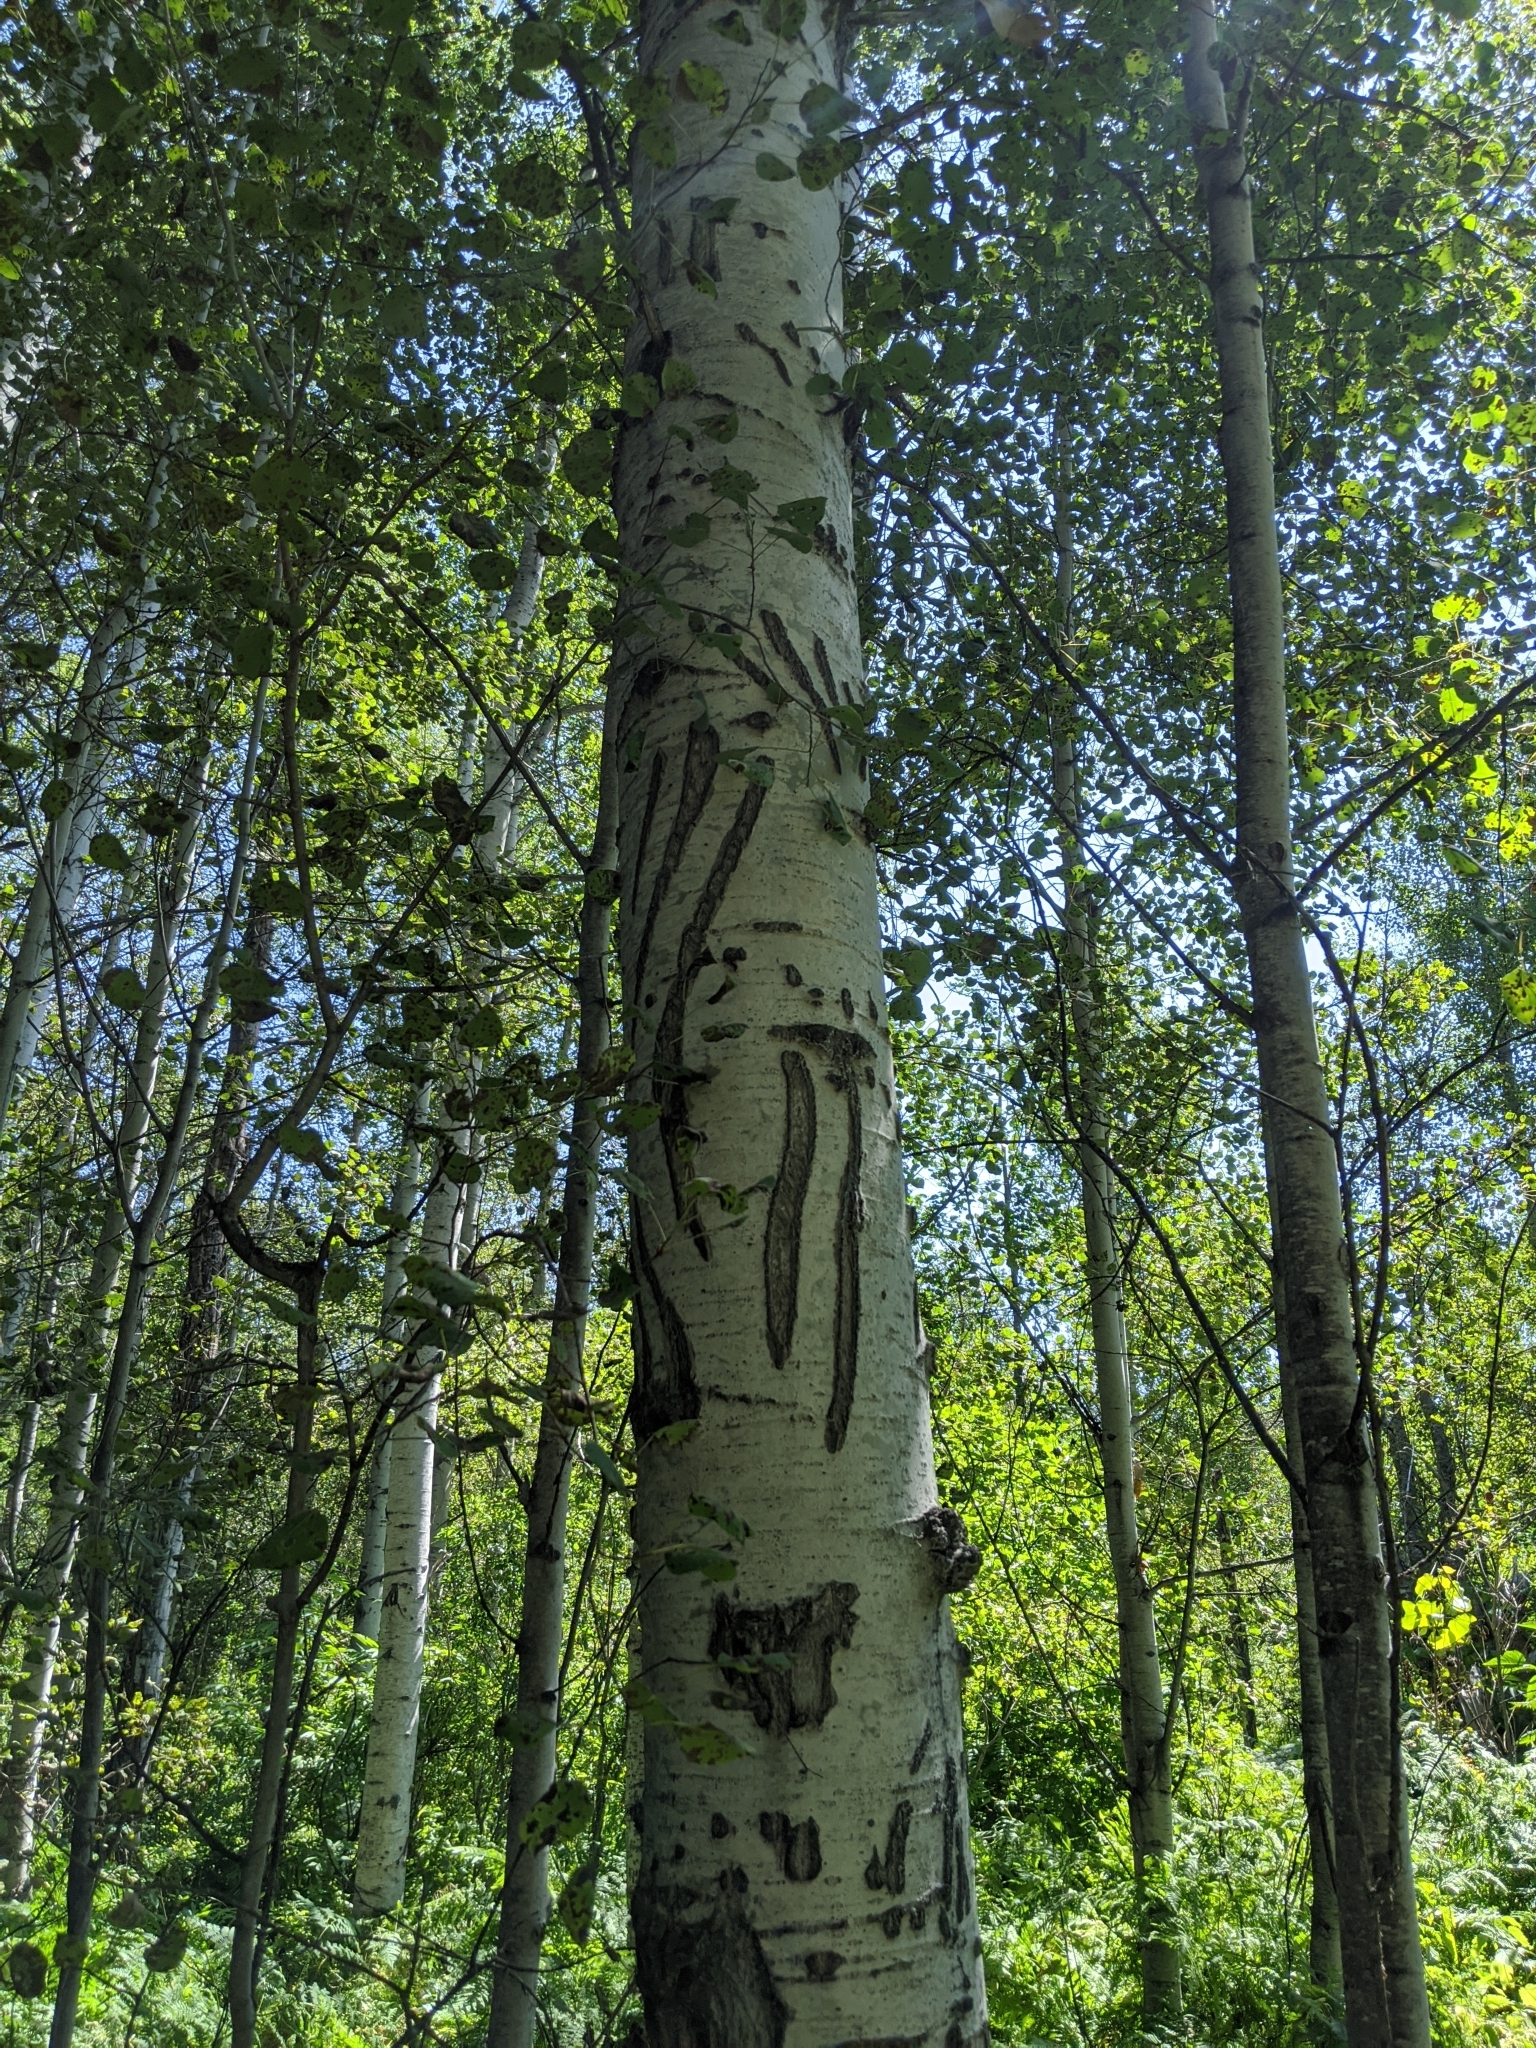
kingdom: Plantae
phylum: Tracheophyta
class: Magnoliopsida
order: Malpighiales
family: Salicaceae
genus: Populus
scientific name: Populus tremuloides
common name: Quaking aspen
